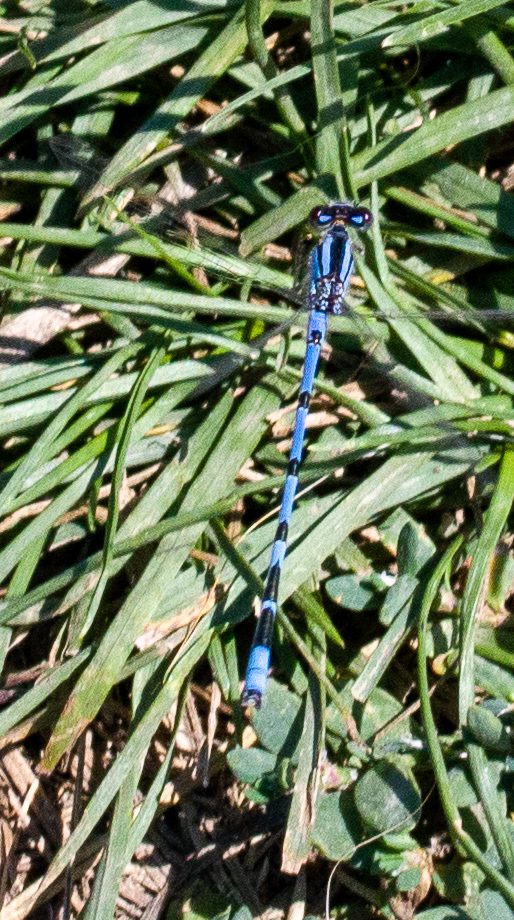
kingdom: Animalia
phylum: Arthropoda
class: Insecta
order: Odonata
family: Coenagrionidae
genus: Enallagma
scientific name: Enallagma civile
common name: Damselfly
